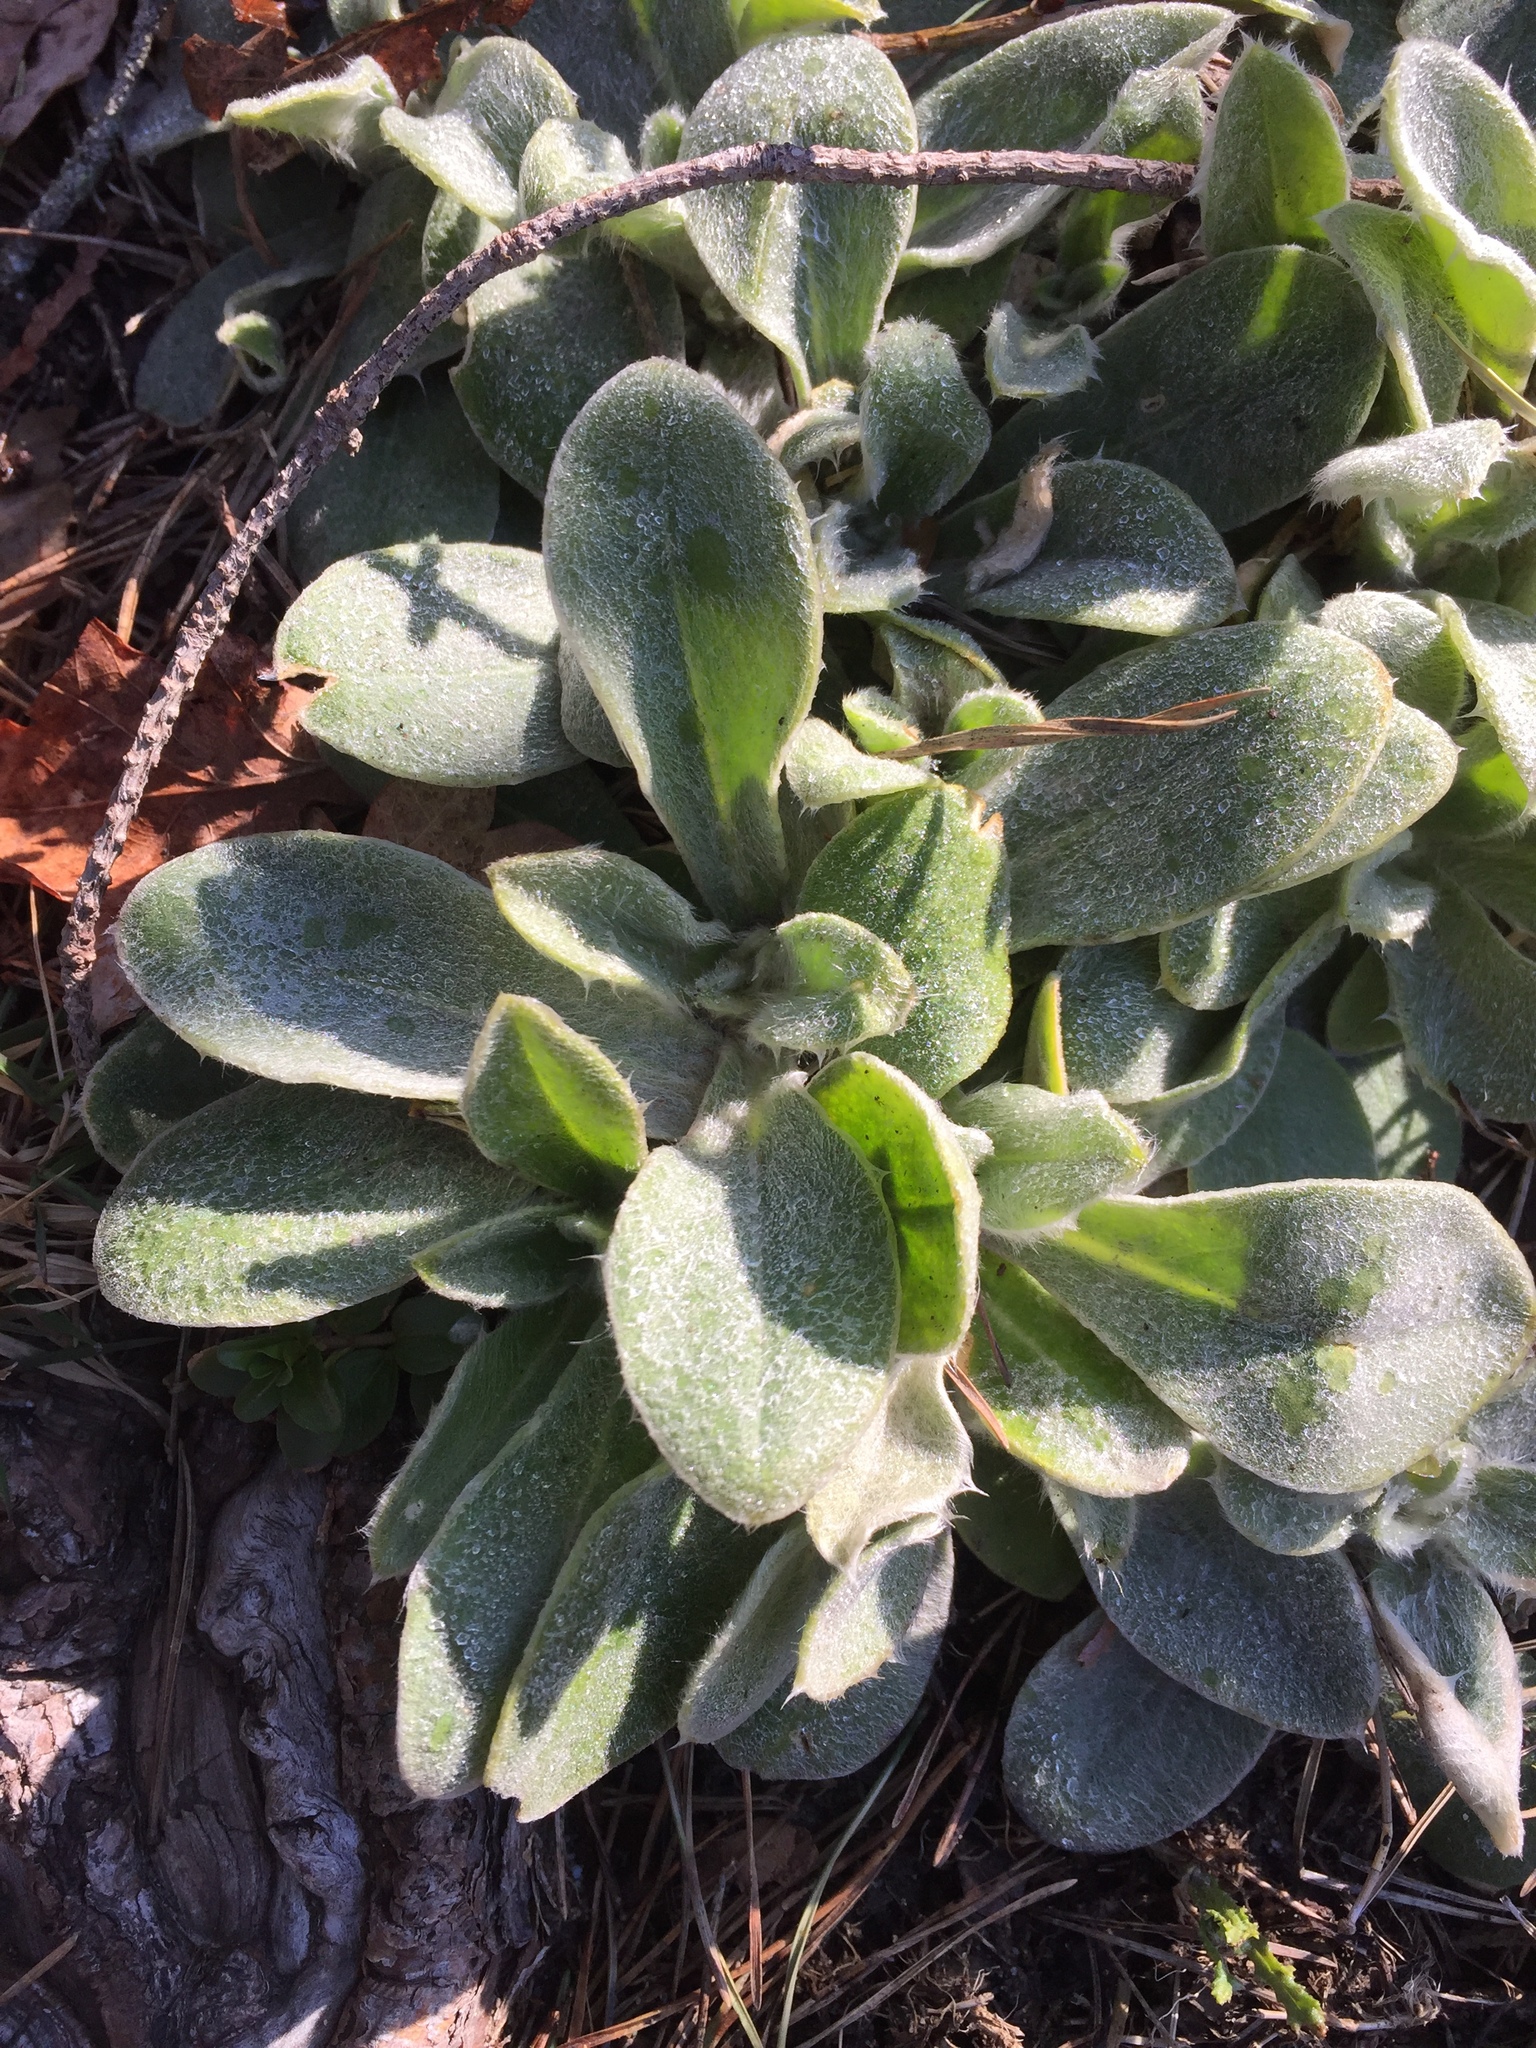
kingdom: Plantae
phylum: Tracheophyta
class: Magnoliopsida
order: Lamiales
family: Lamiaceae
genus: Stachys
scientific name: Stachys byzantina
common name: Lamb's-ear
